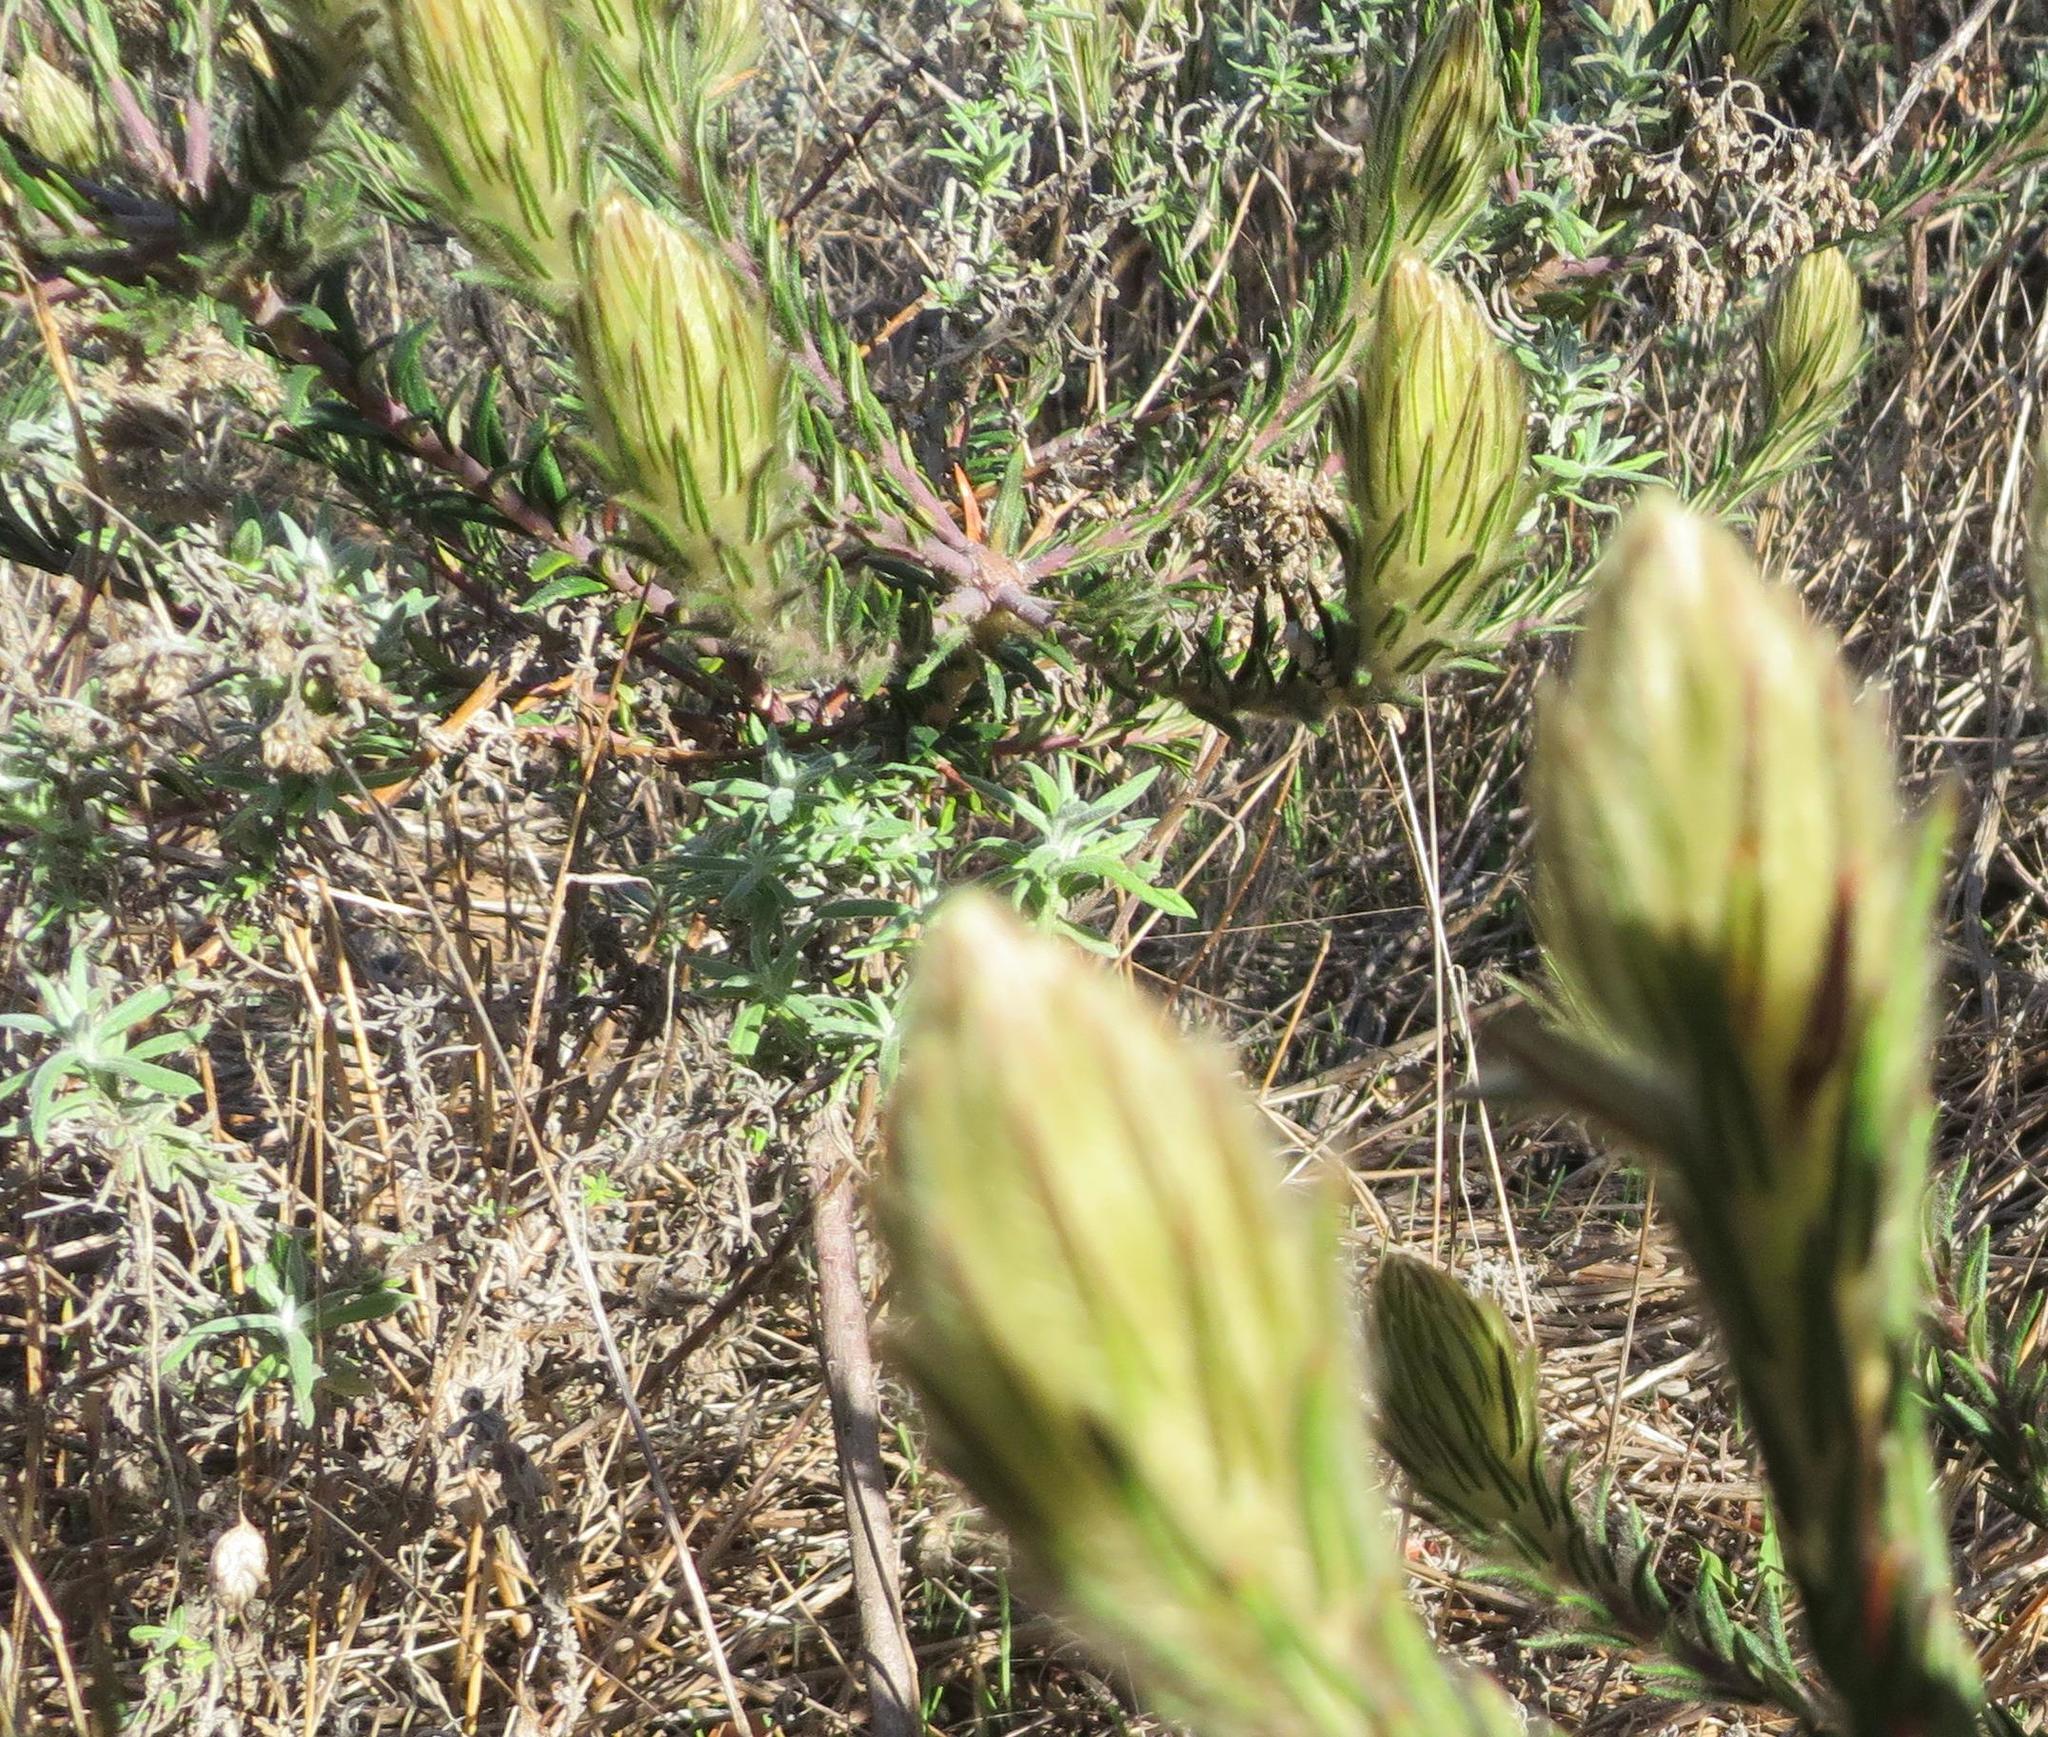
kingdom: Plantae
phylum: Tracheophyta
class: Magnoliopsida
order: Rosales
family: Rhamnaceae
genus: Phylica
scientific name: Phylica plumosa
